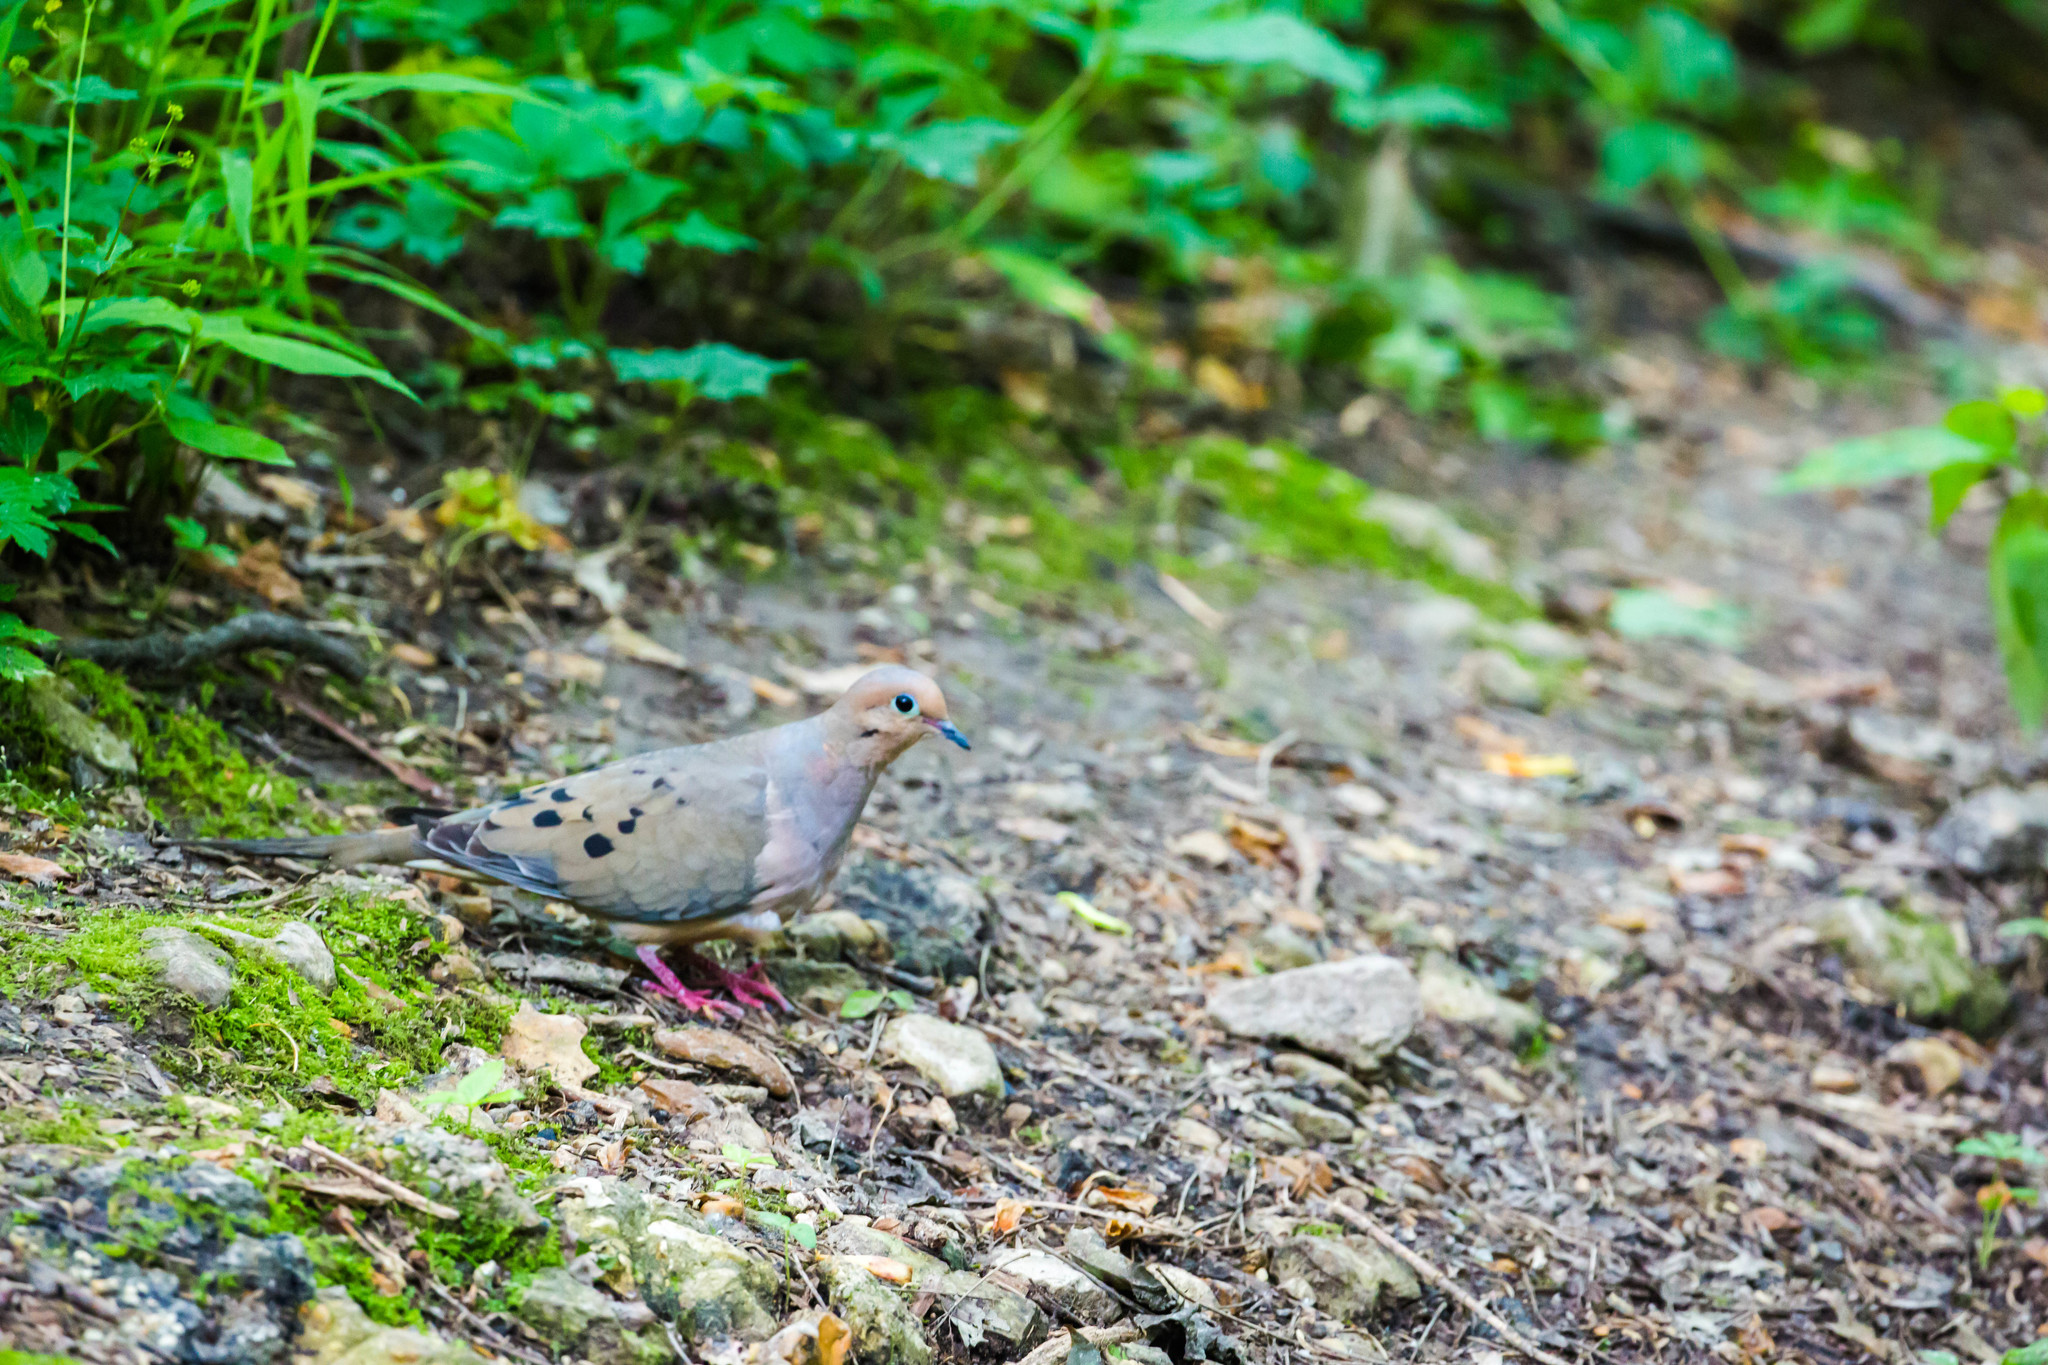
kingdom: Animalia
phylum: Chordata
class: Aves
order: Columbiformes
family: Columbidae
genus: Zenaida
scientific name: Zenaida macroura
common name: Mourning dove
